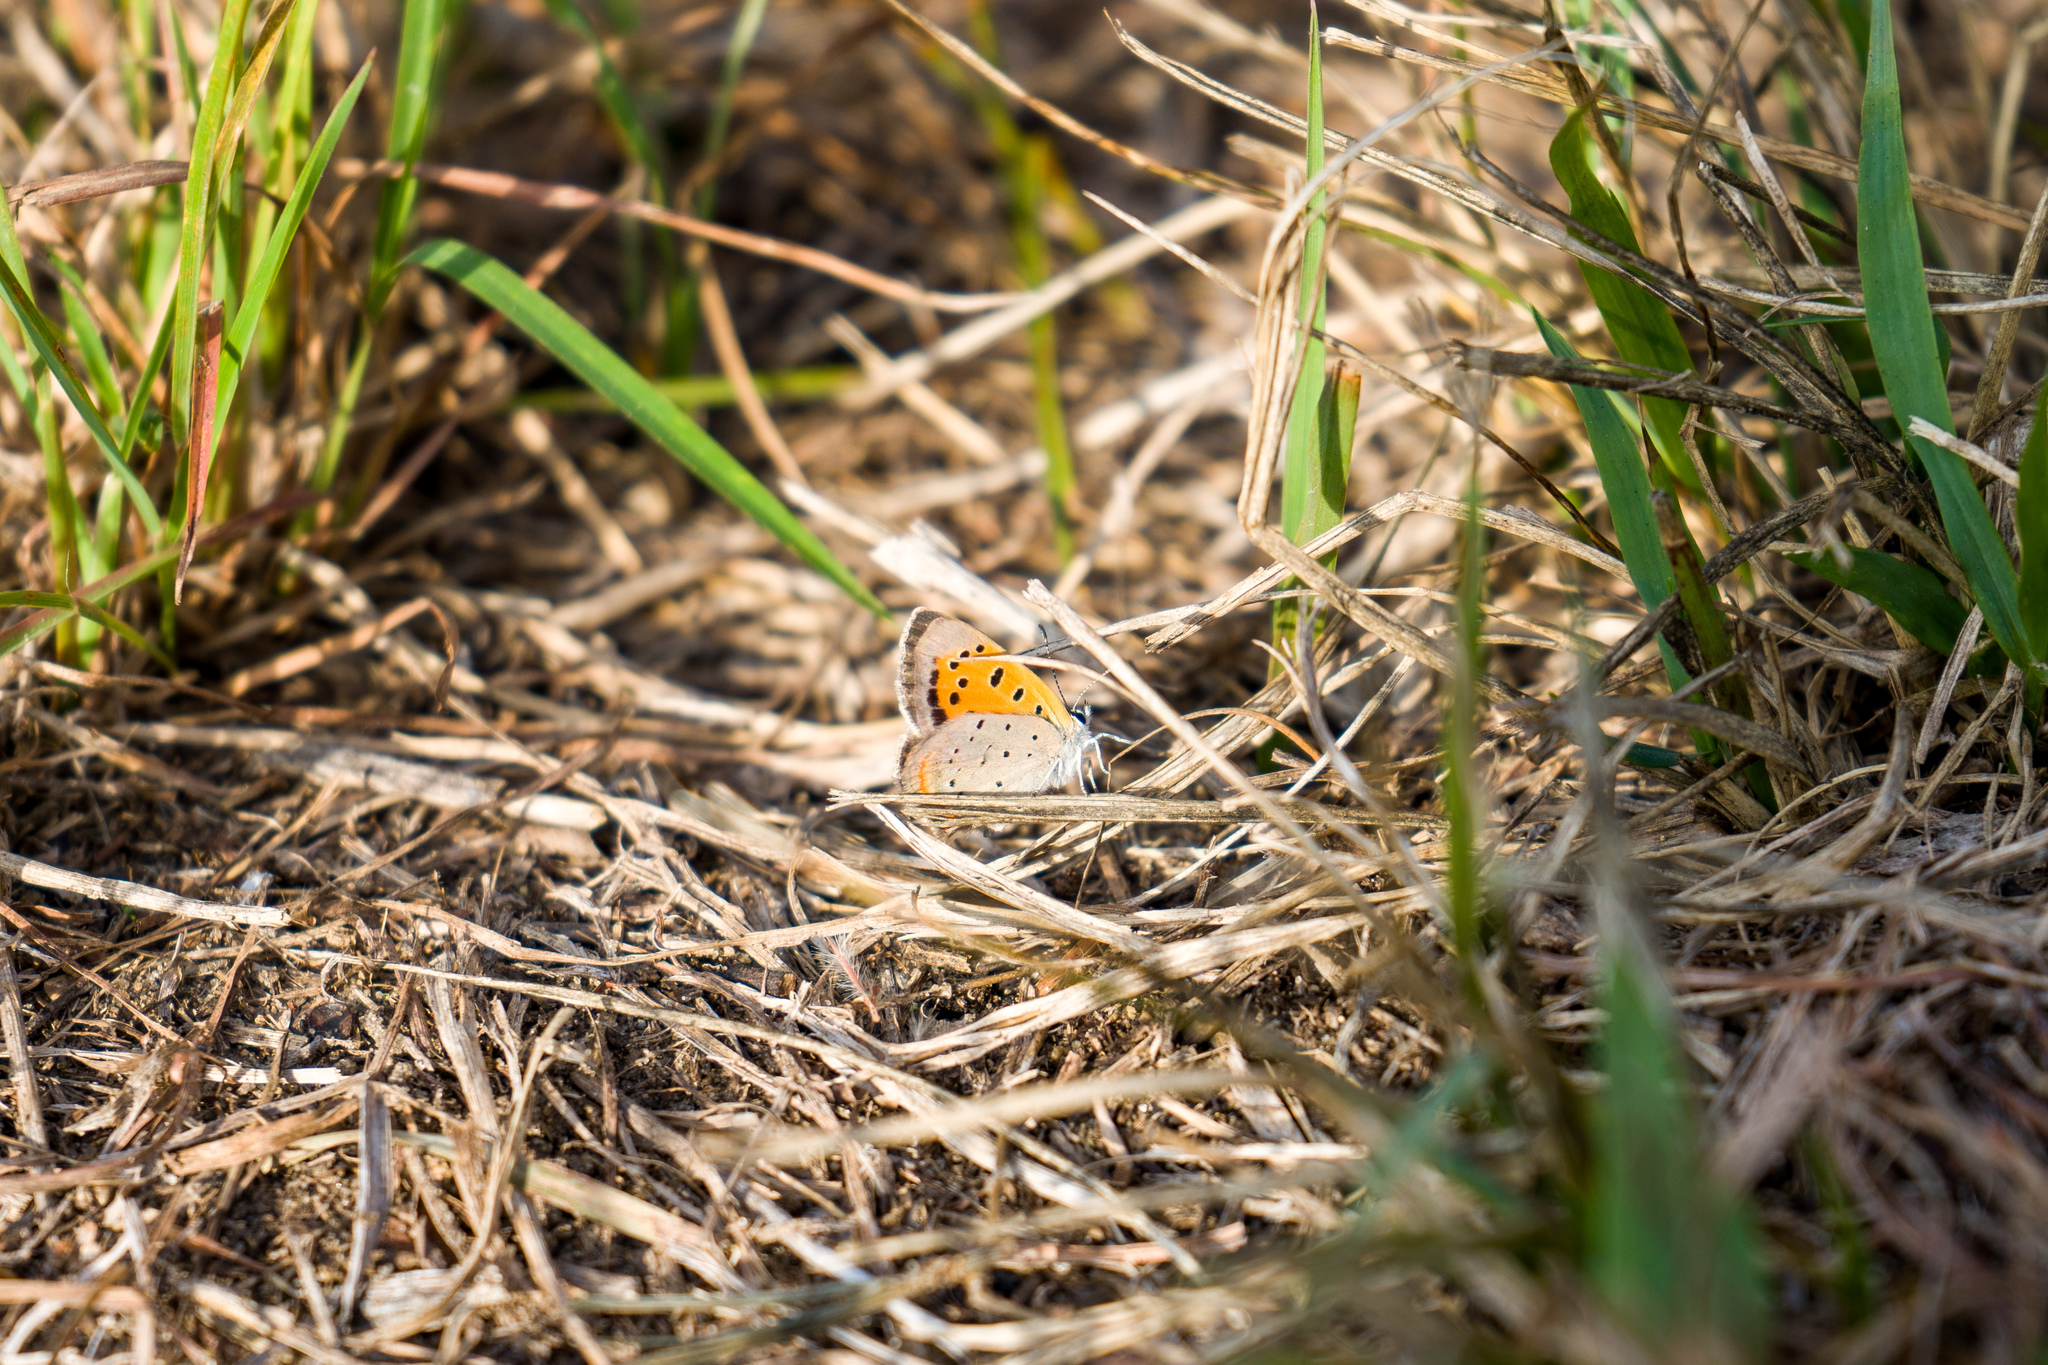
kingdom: Animalia
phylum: Arthropoda
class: Insecta
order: Lepidoptera
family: Lycaenidae
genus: Lycaena
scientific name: Lycaena hypophlaeas
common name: American copper
